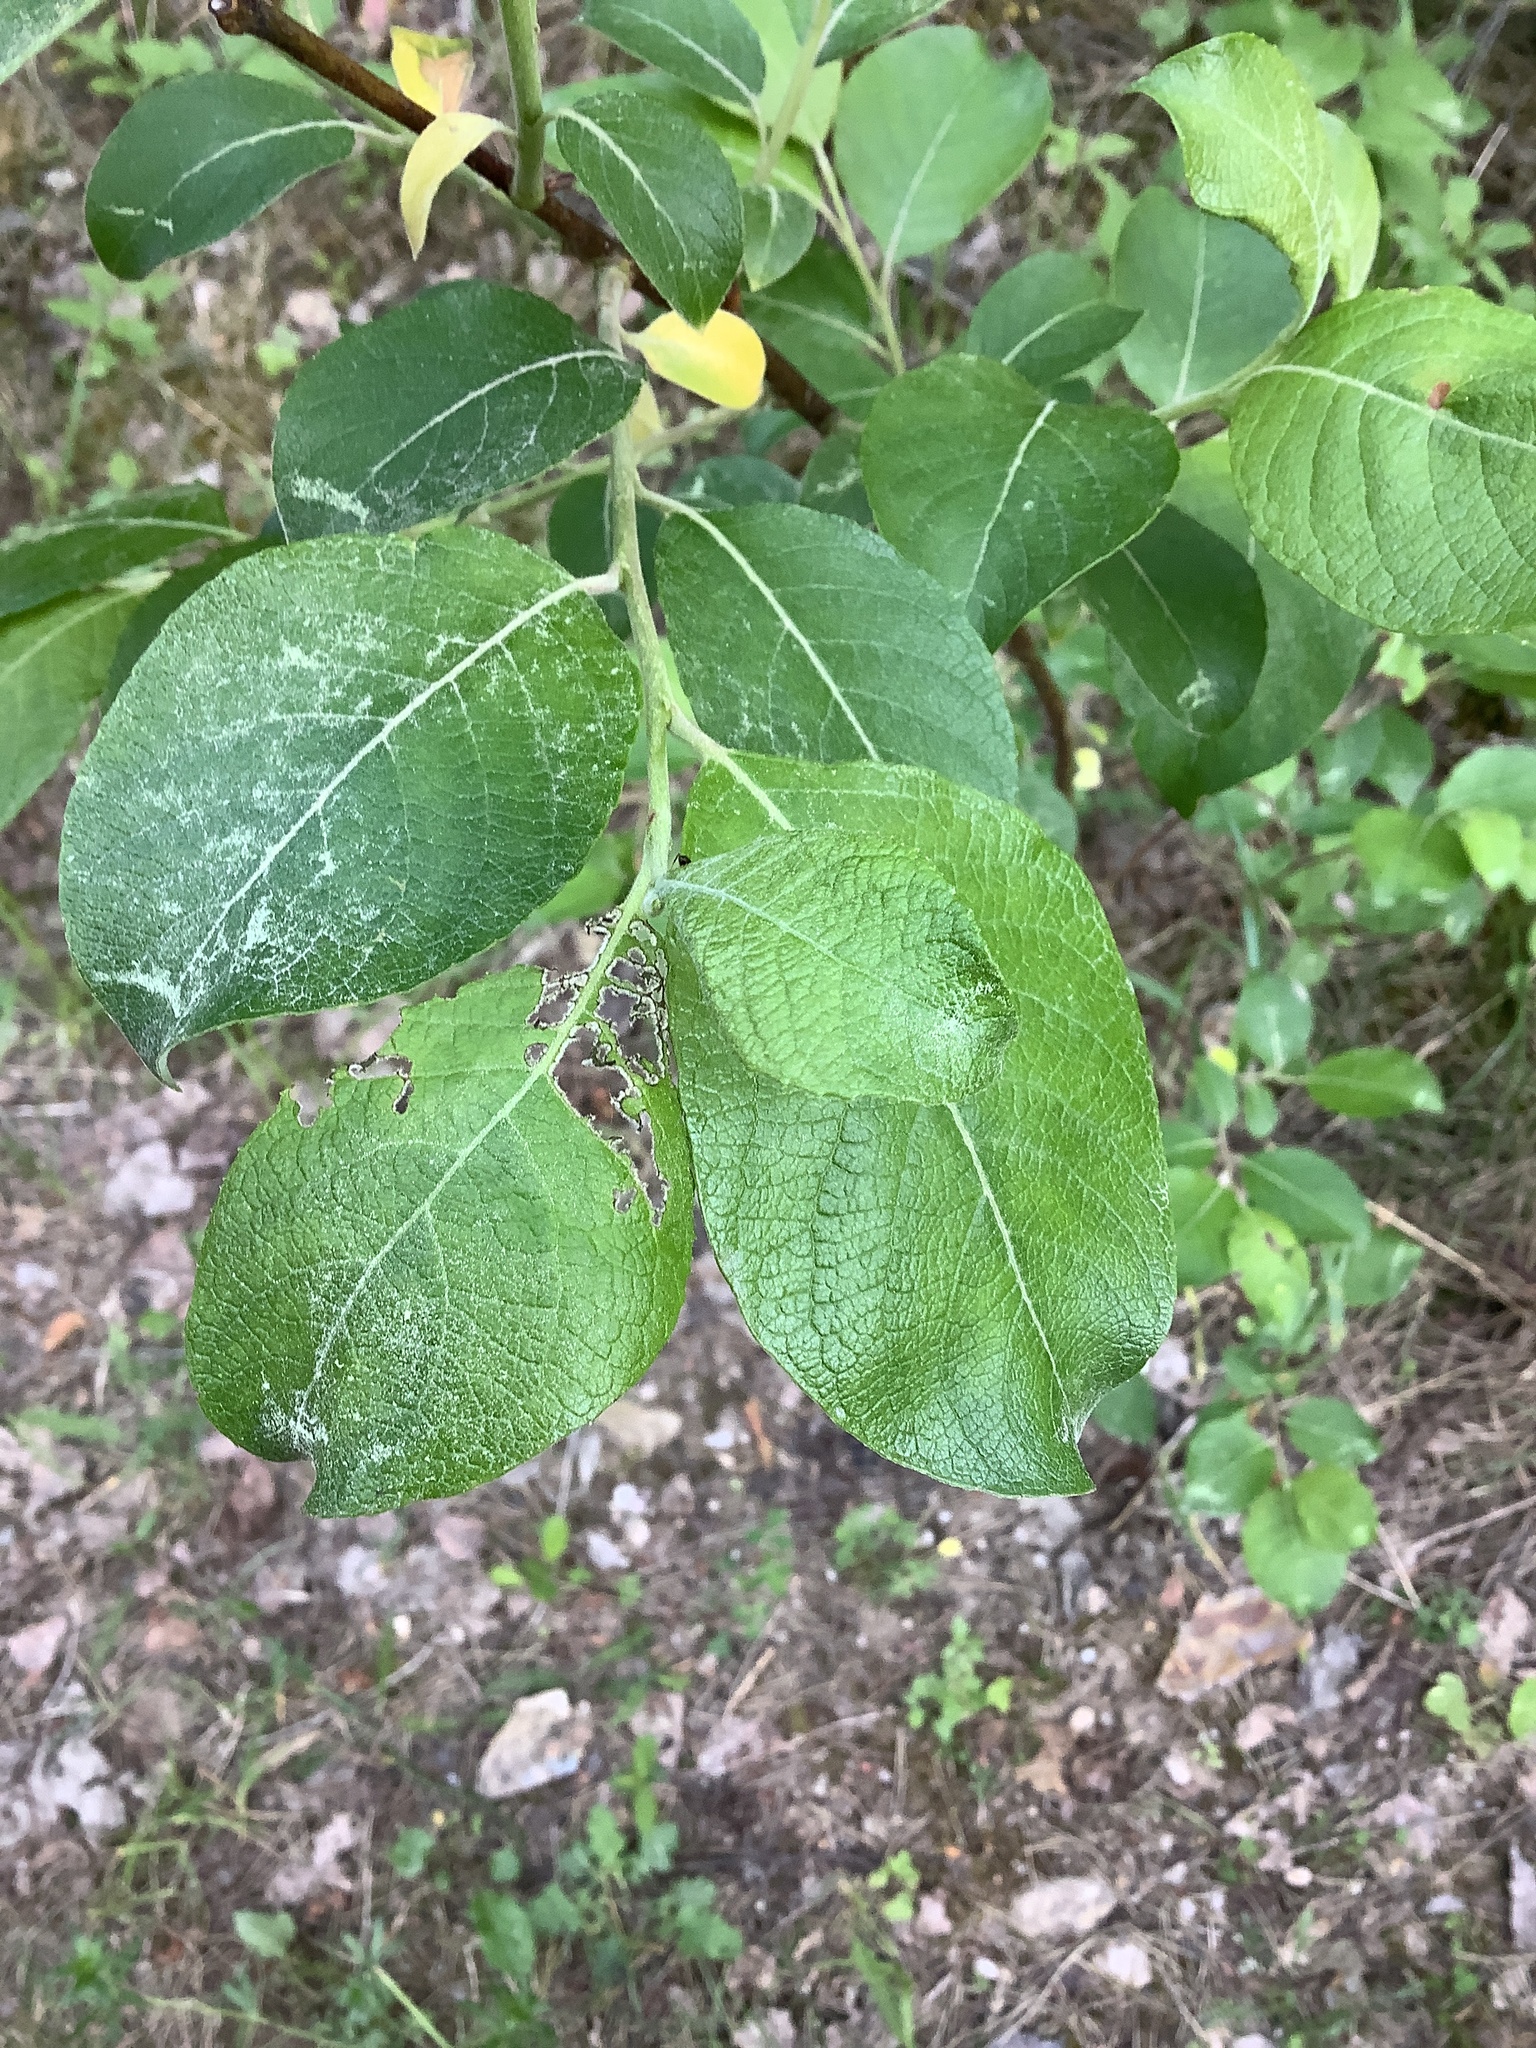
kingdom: Plantae
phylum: Tracheophyta
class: Magnoliopsida
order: Malpighiales
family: Salicaceae
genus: Salix
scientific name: Salix caprea
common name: Goat willow
